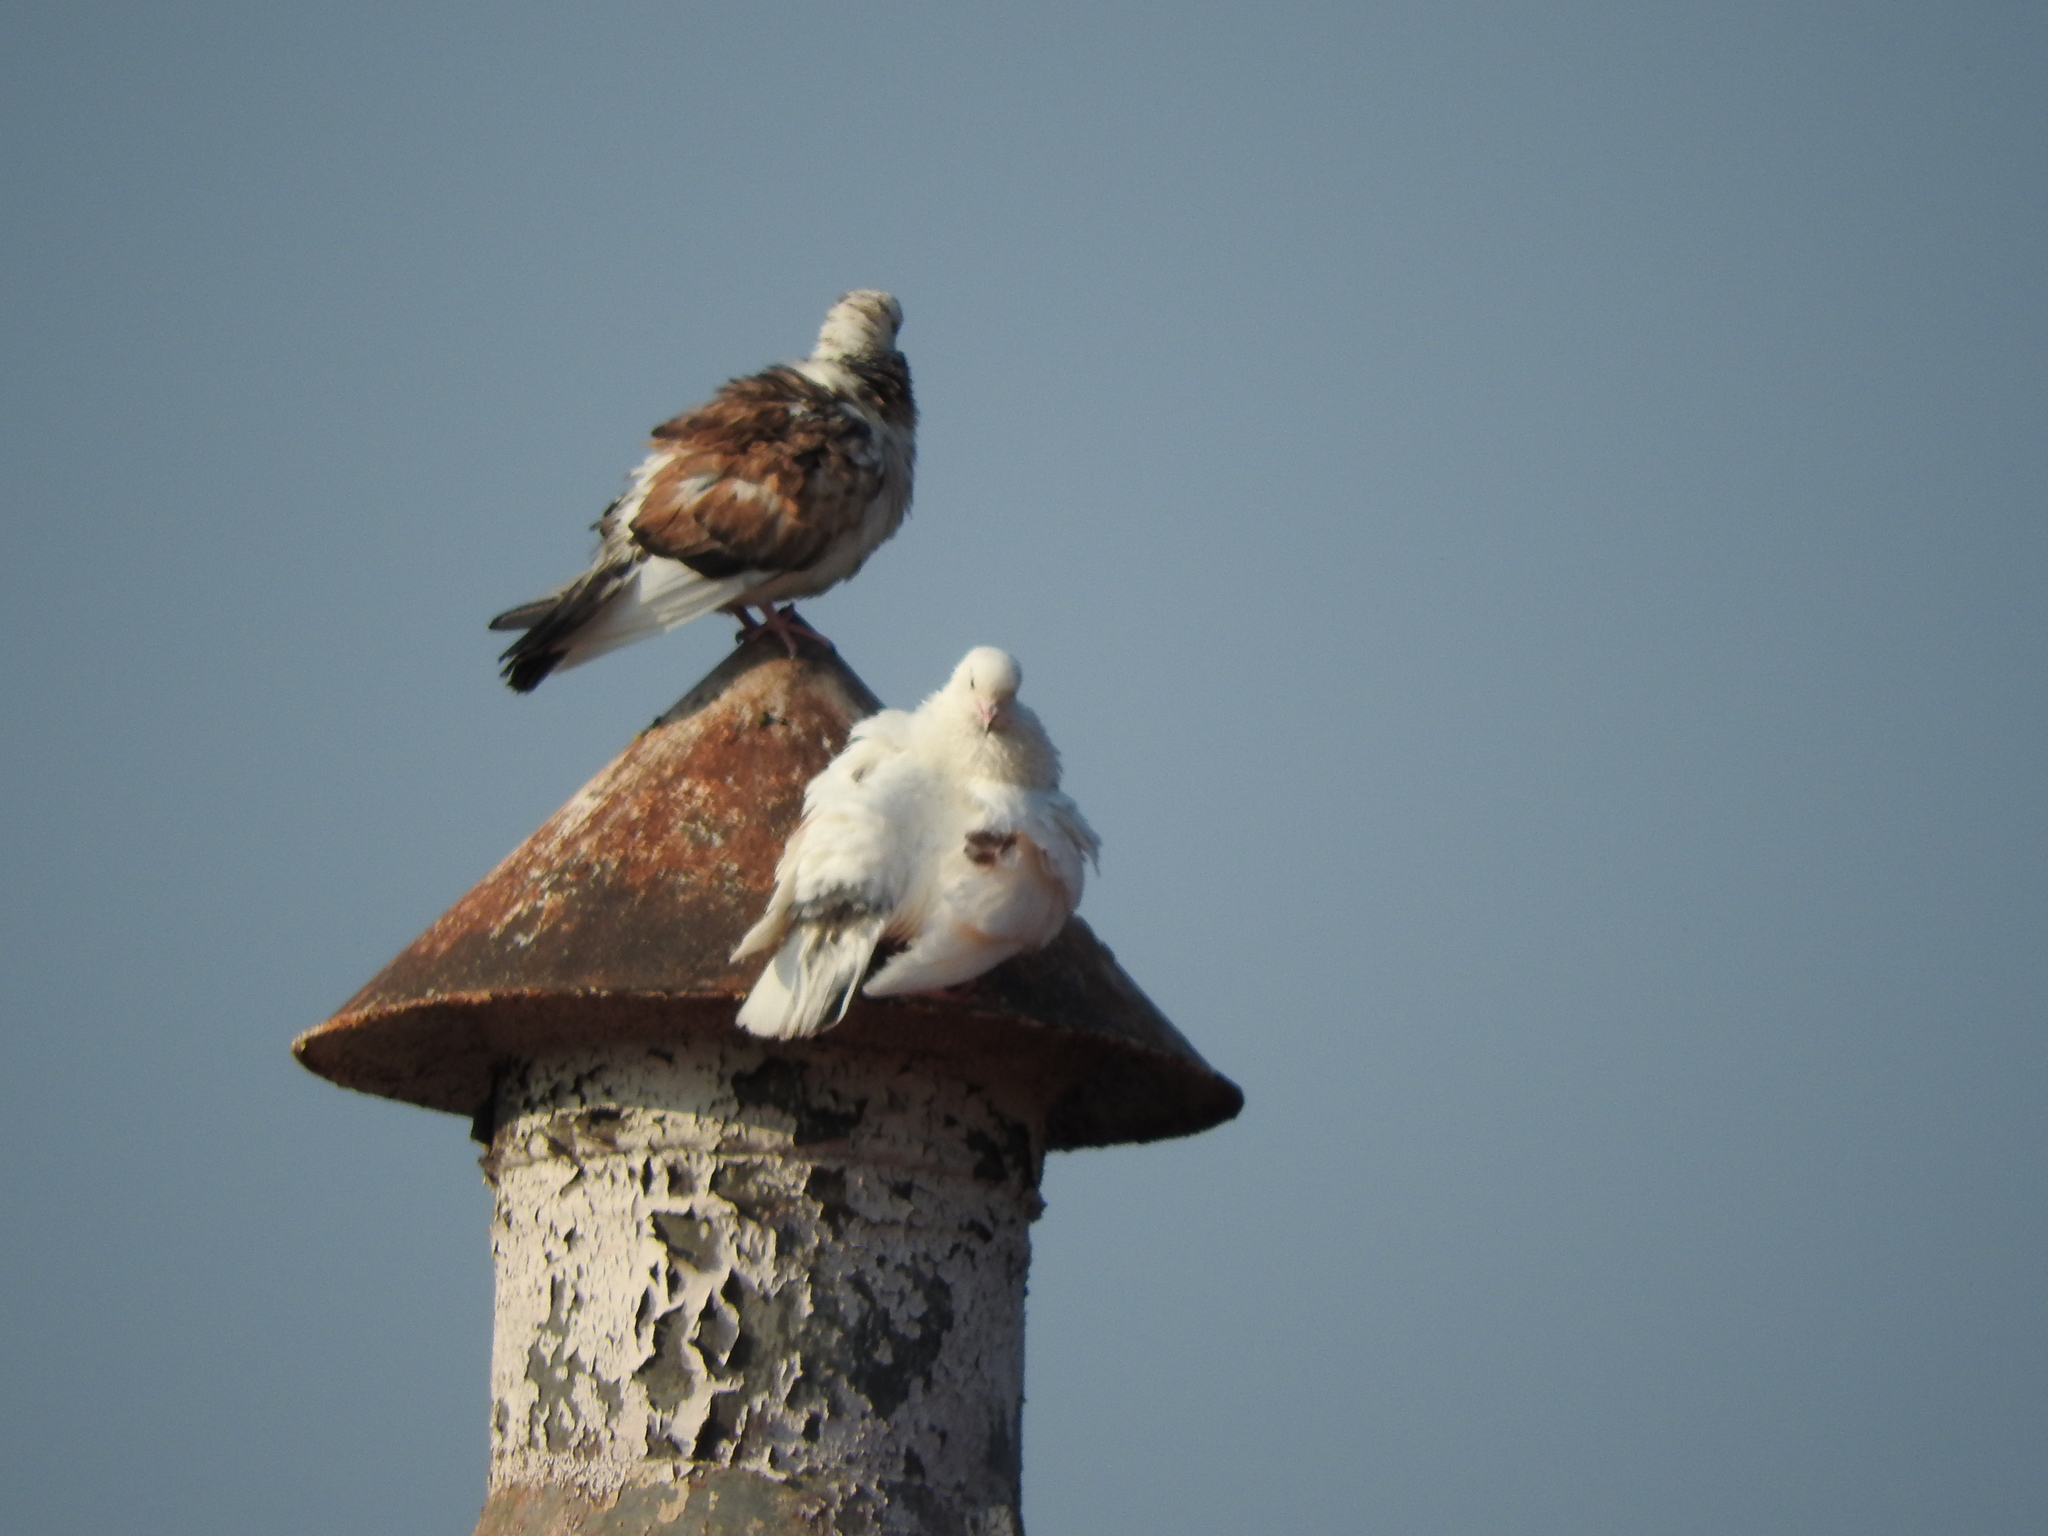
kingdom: Animalia
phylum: Chordata
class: Aves
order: Columbiformes
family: Columbidae
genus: Columba
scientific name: Columba livia
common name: Rock pigeon
